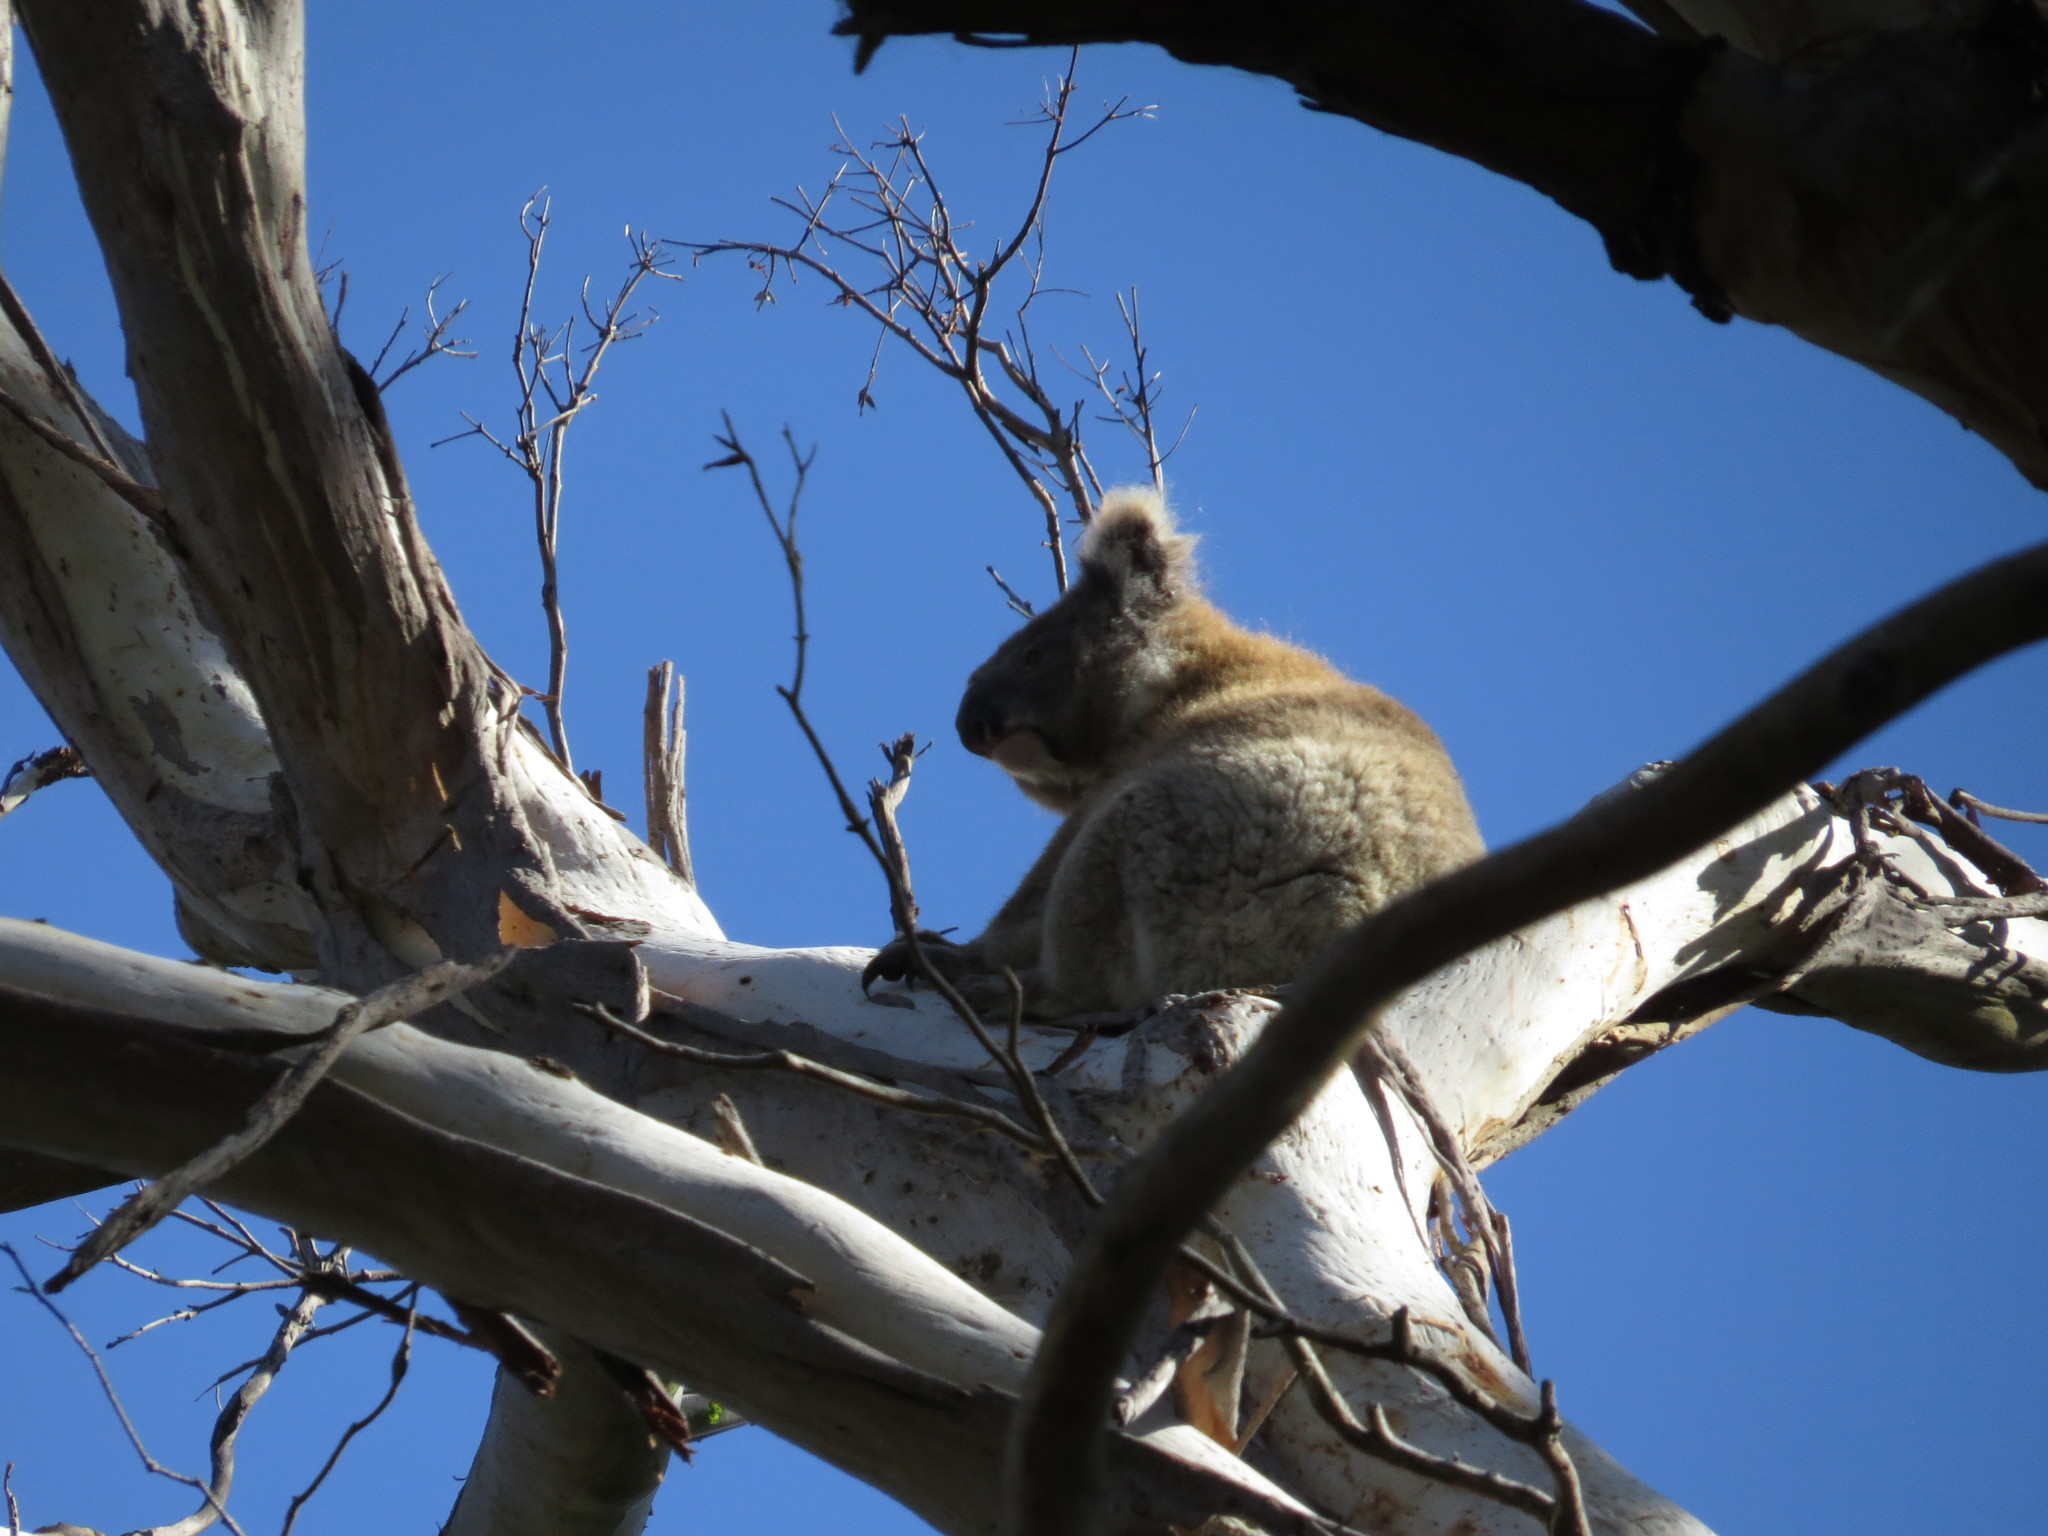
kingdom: Animalia
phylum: Chordata
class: Mammalia
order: Diprotodontia
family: Phascolarctidae
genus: Phascolarctos
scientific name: Phascolarctos cinereus
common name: Koala
